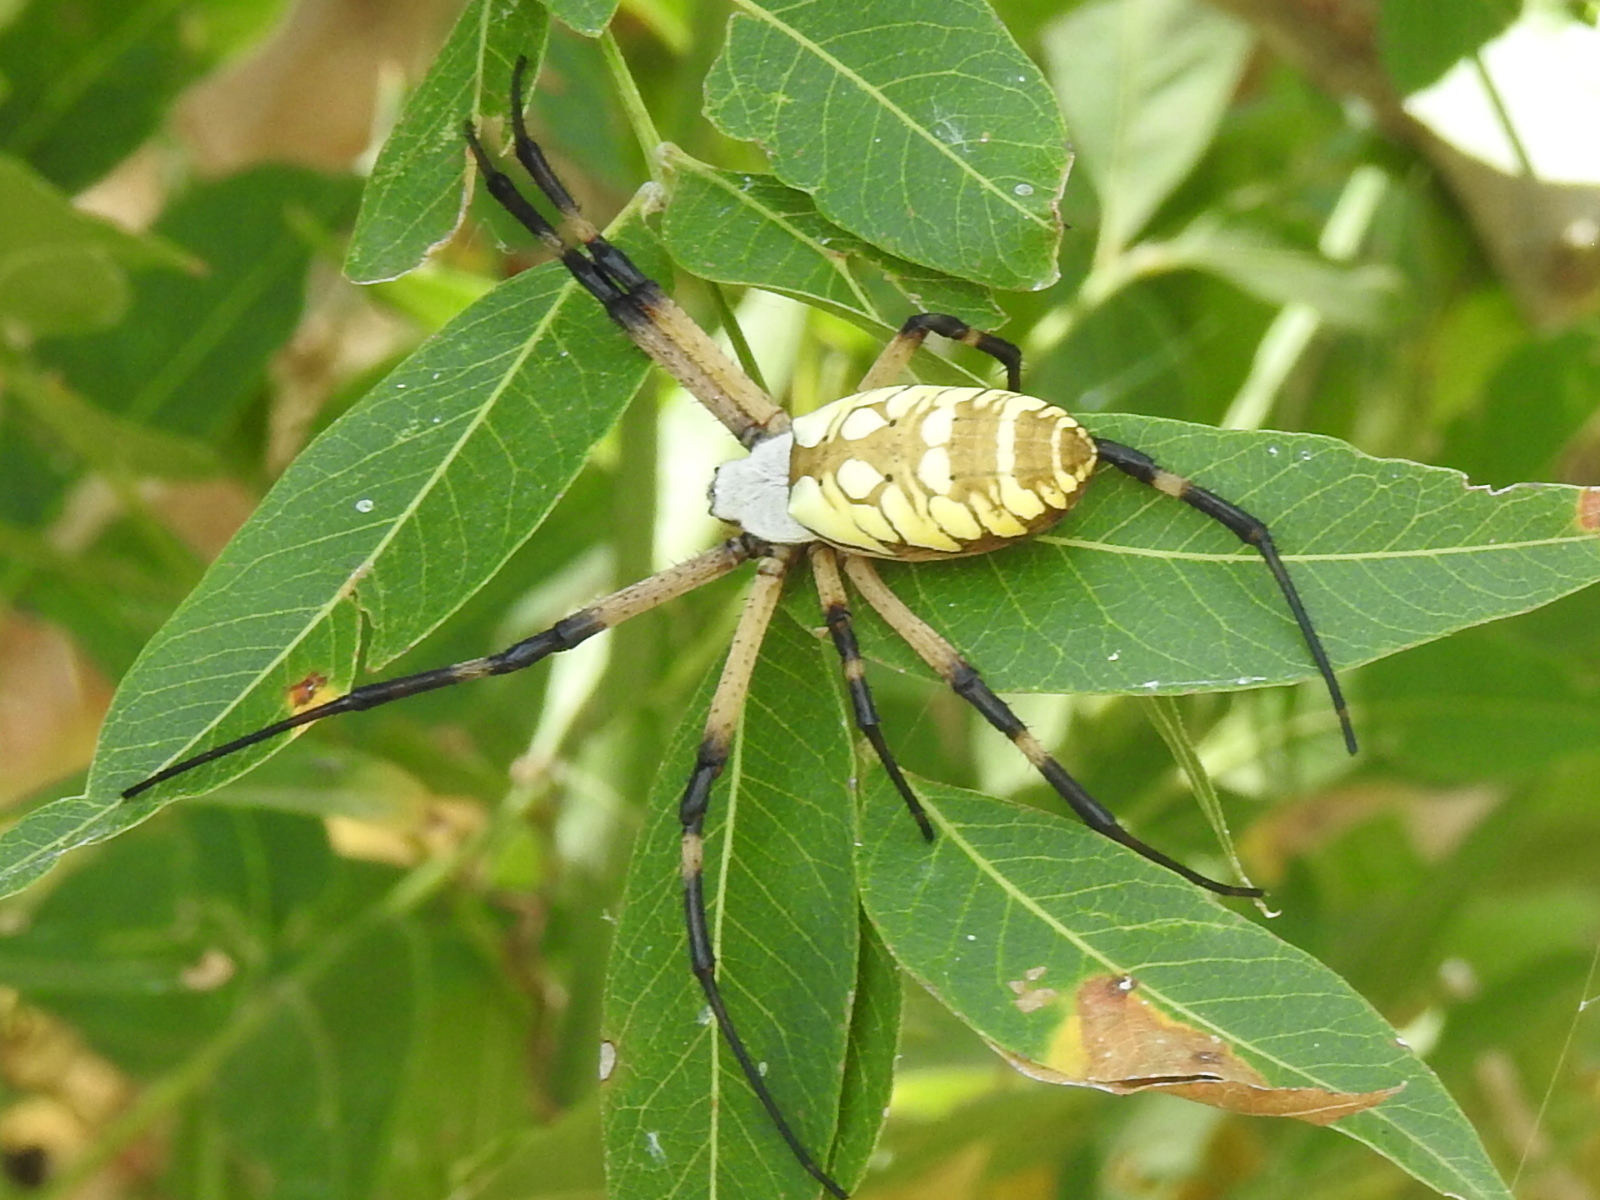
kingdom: Animalia
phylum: Arthropoda
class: Arachnida
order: Araneae
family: Araneidae
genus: Argiope
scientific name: Argiope aurantia
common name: Orb weavers
